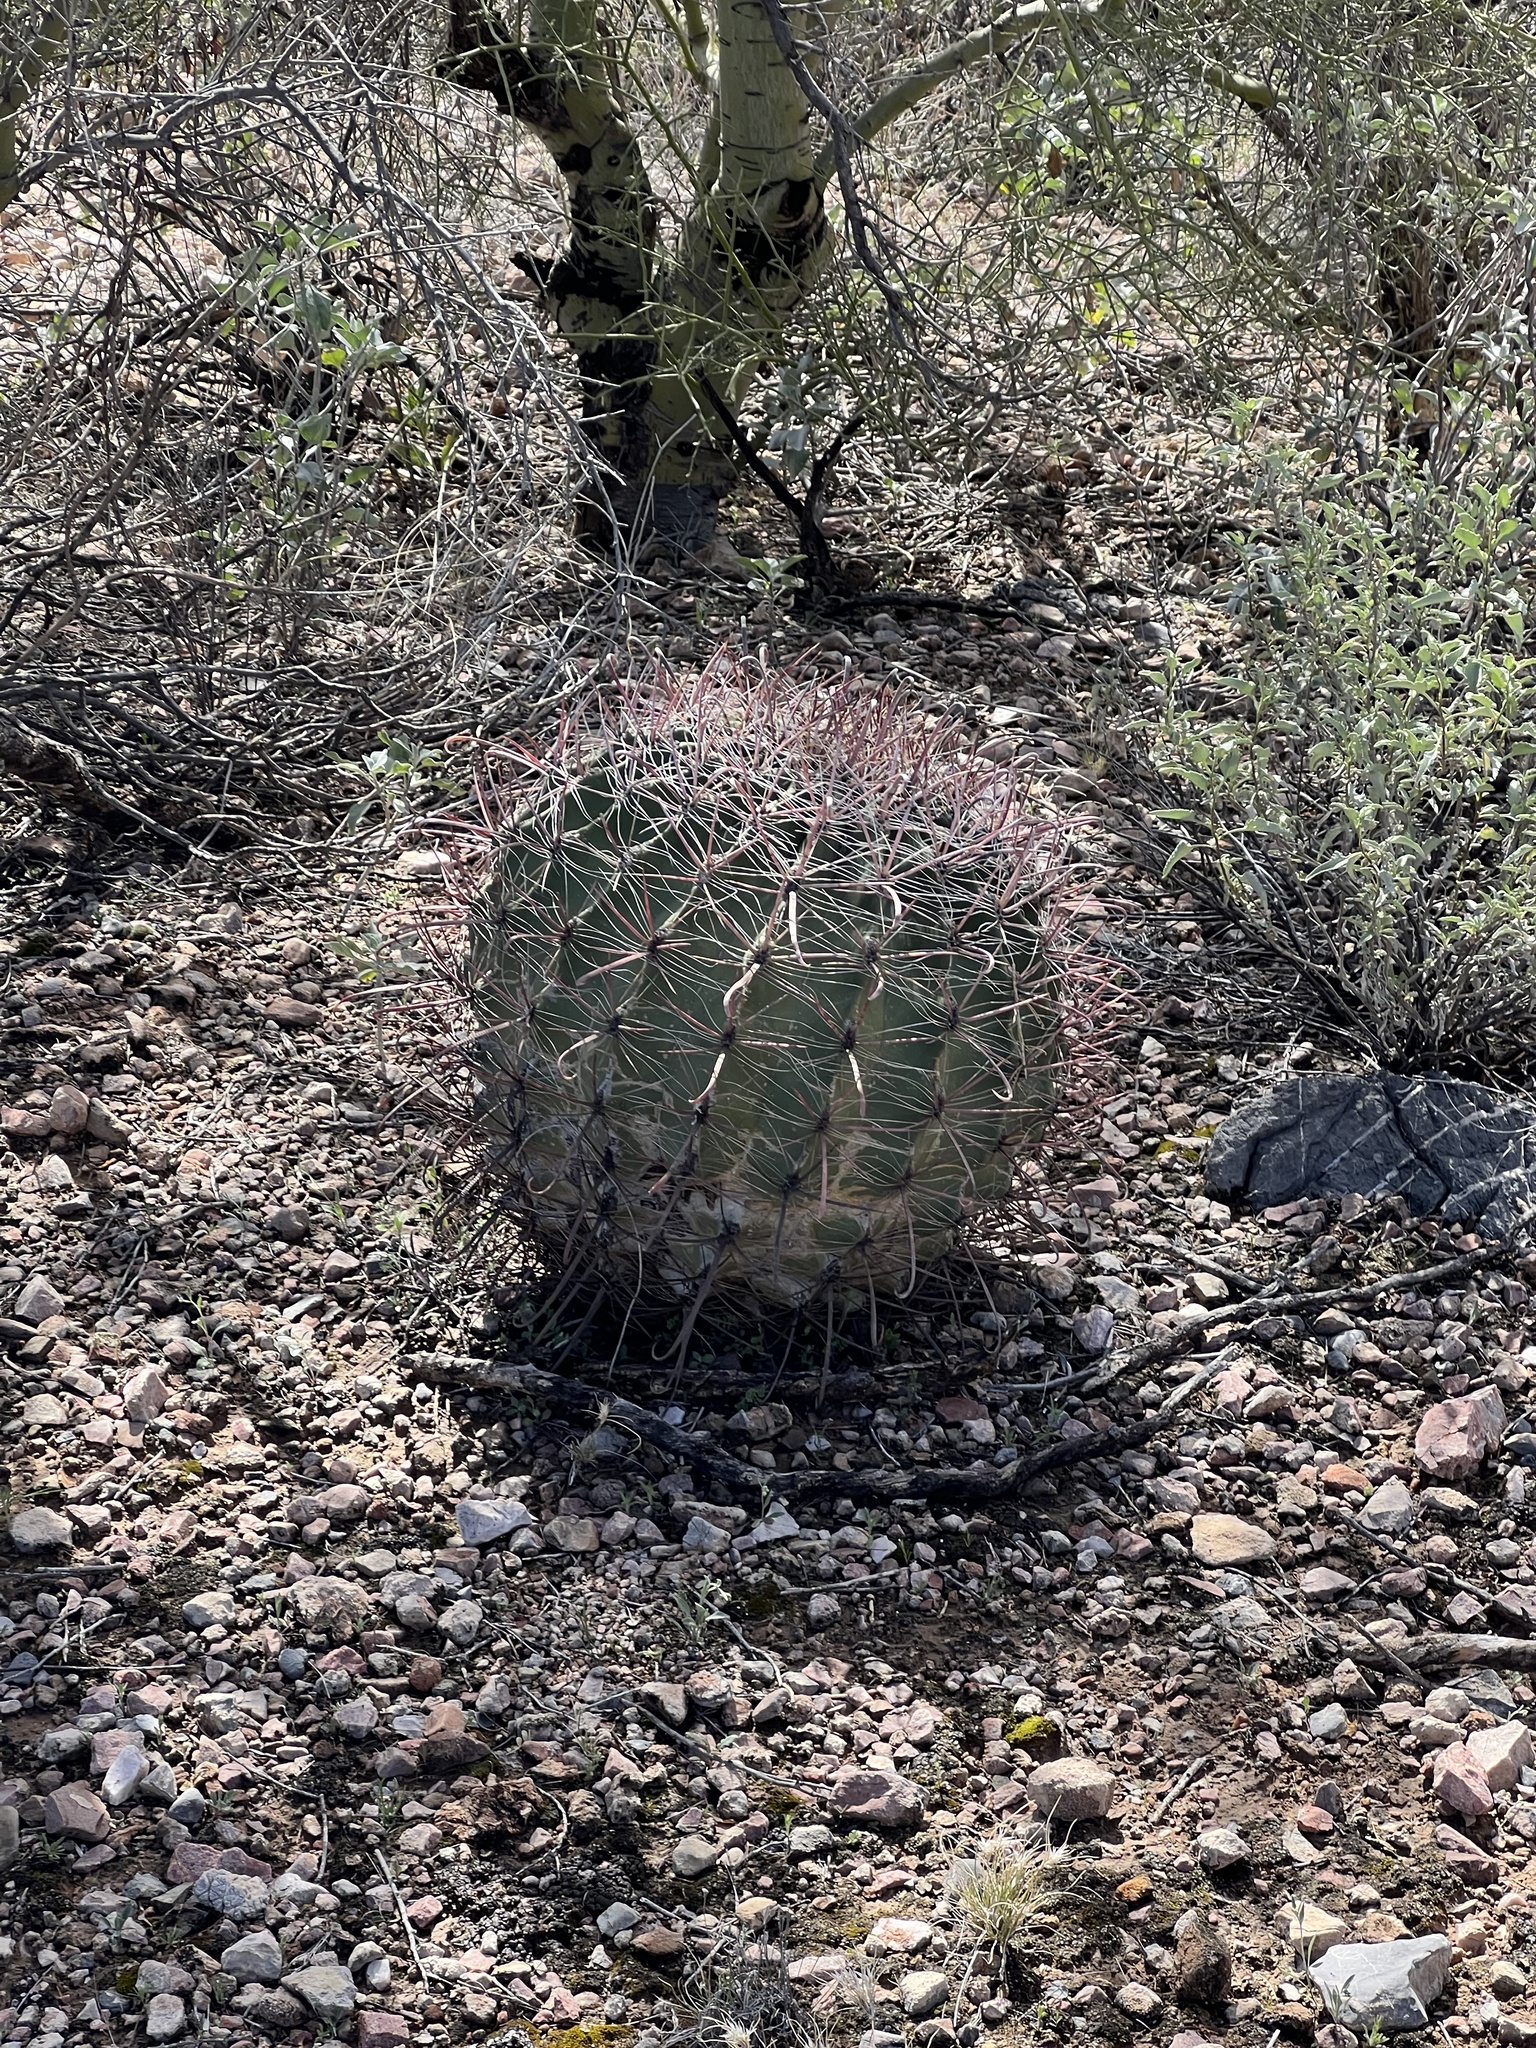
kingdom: Plantae
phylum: Tracheophyta
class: Magnoliopsida
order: Caryophyllales
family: Cactaceae
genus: Ferocactus
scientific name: Ferocactus wislizeni
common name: Candy barrel cactus
